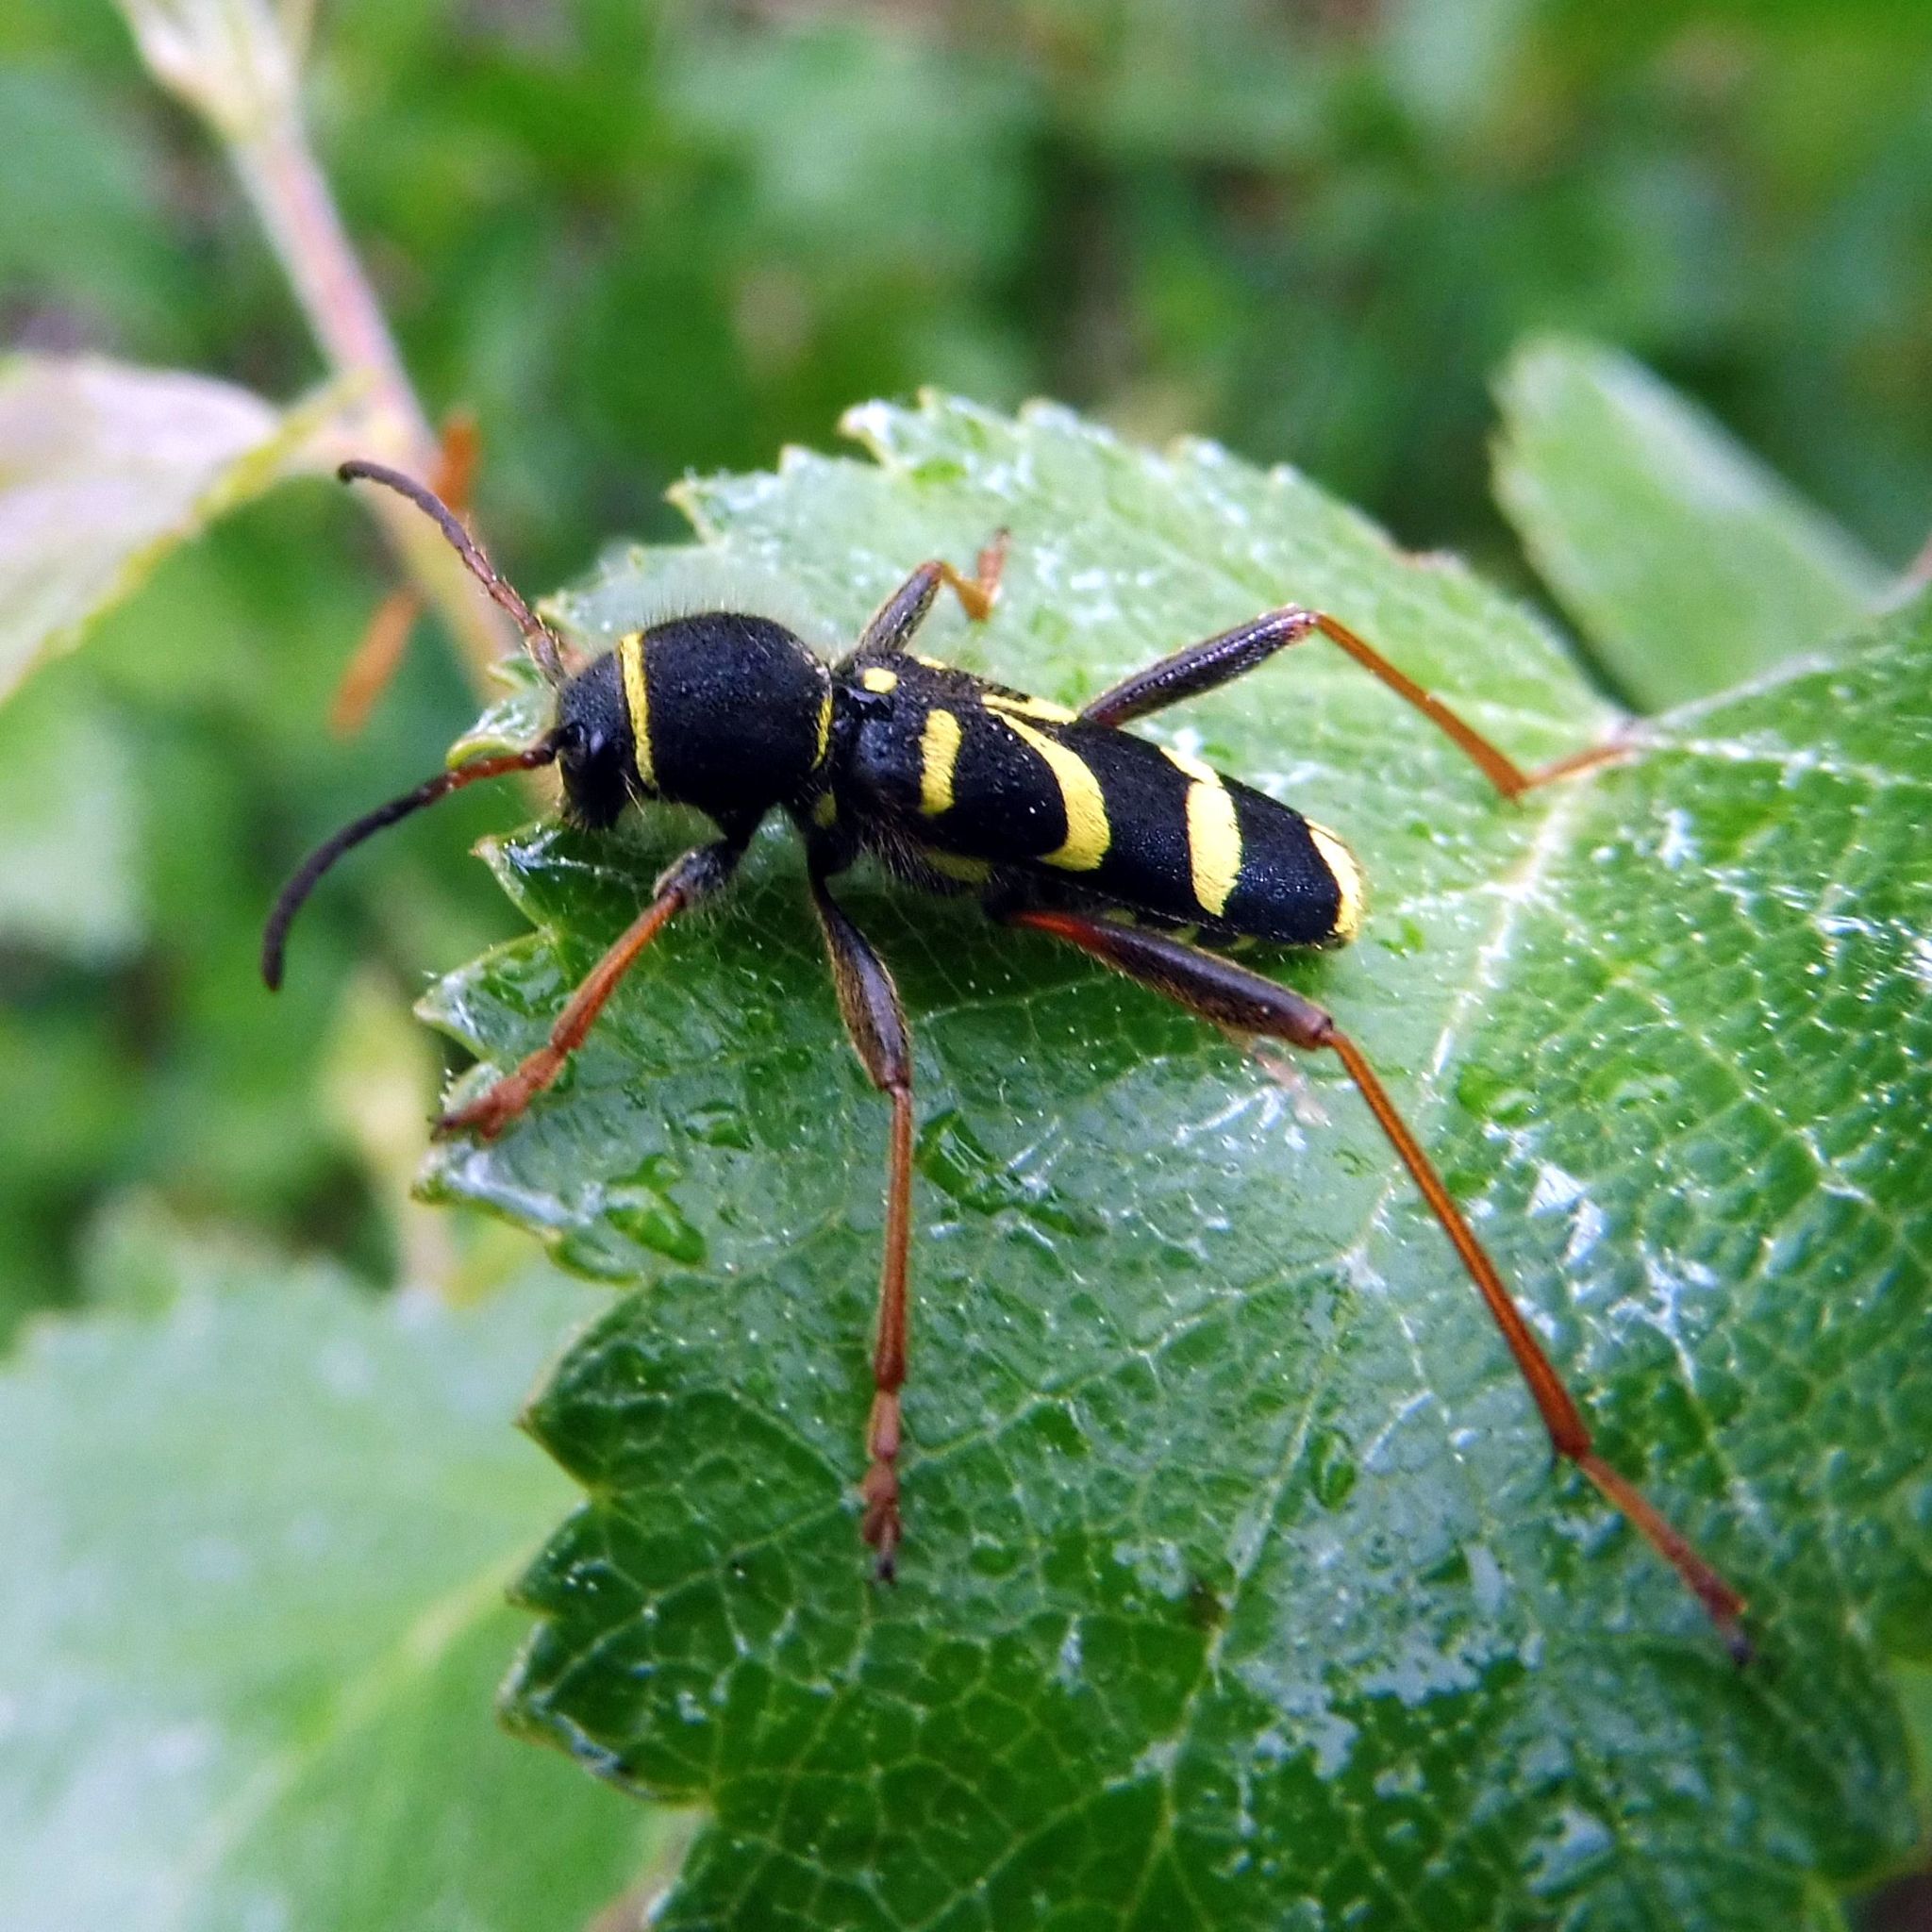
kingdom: Animalia
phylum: Arthropoda
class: Insecta
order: Coleoptera
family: Cerambycidae
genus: Clytus
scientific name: Clytus arietis
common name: Wasp beetle
